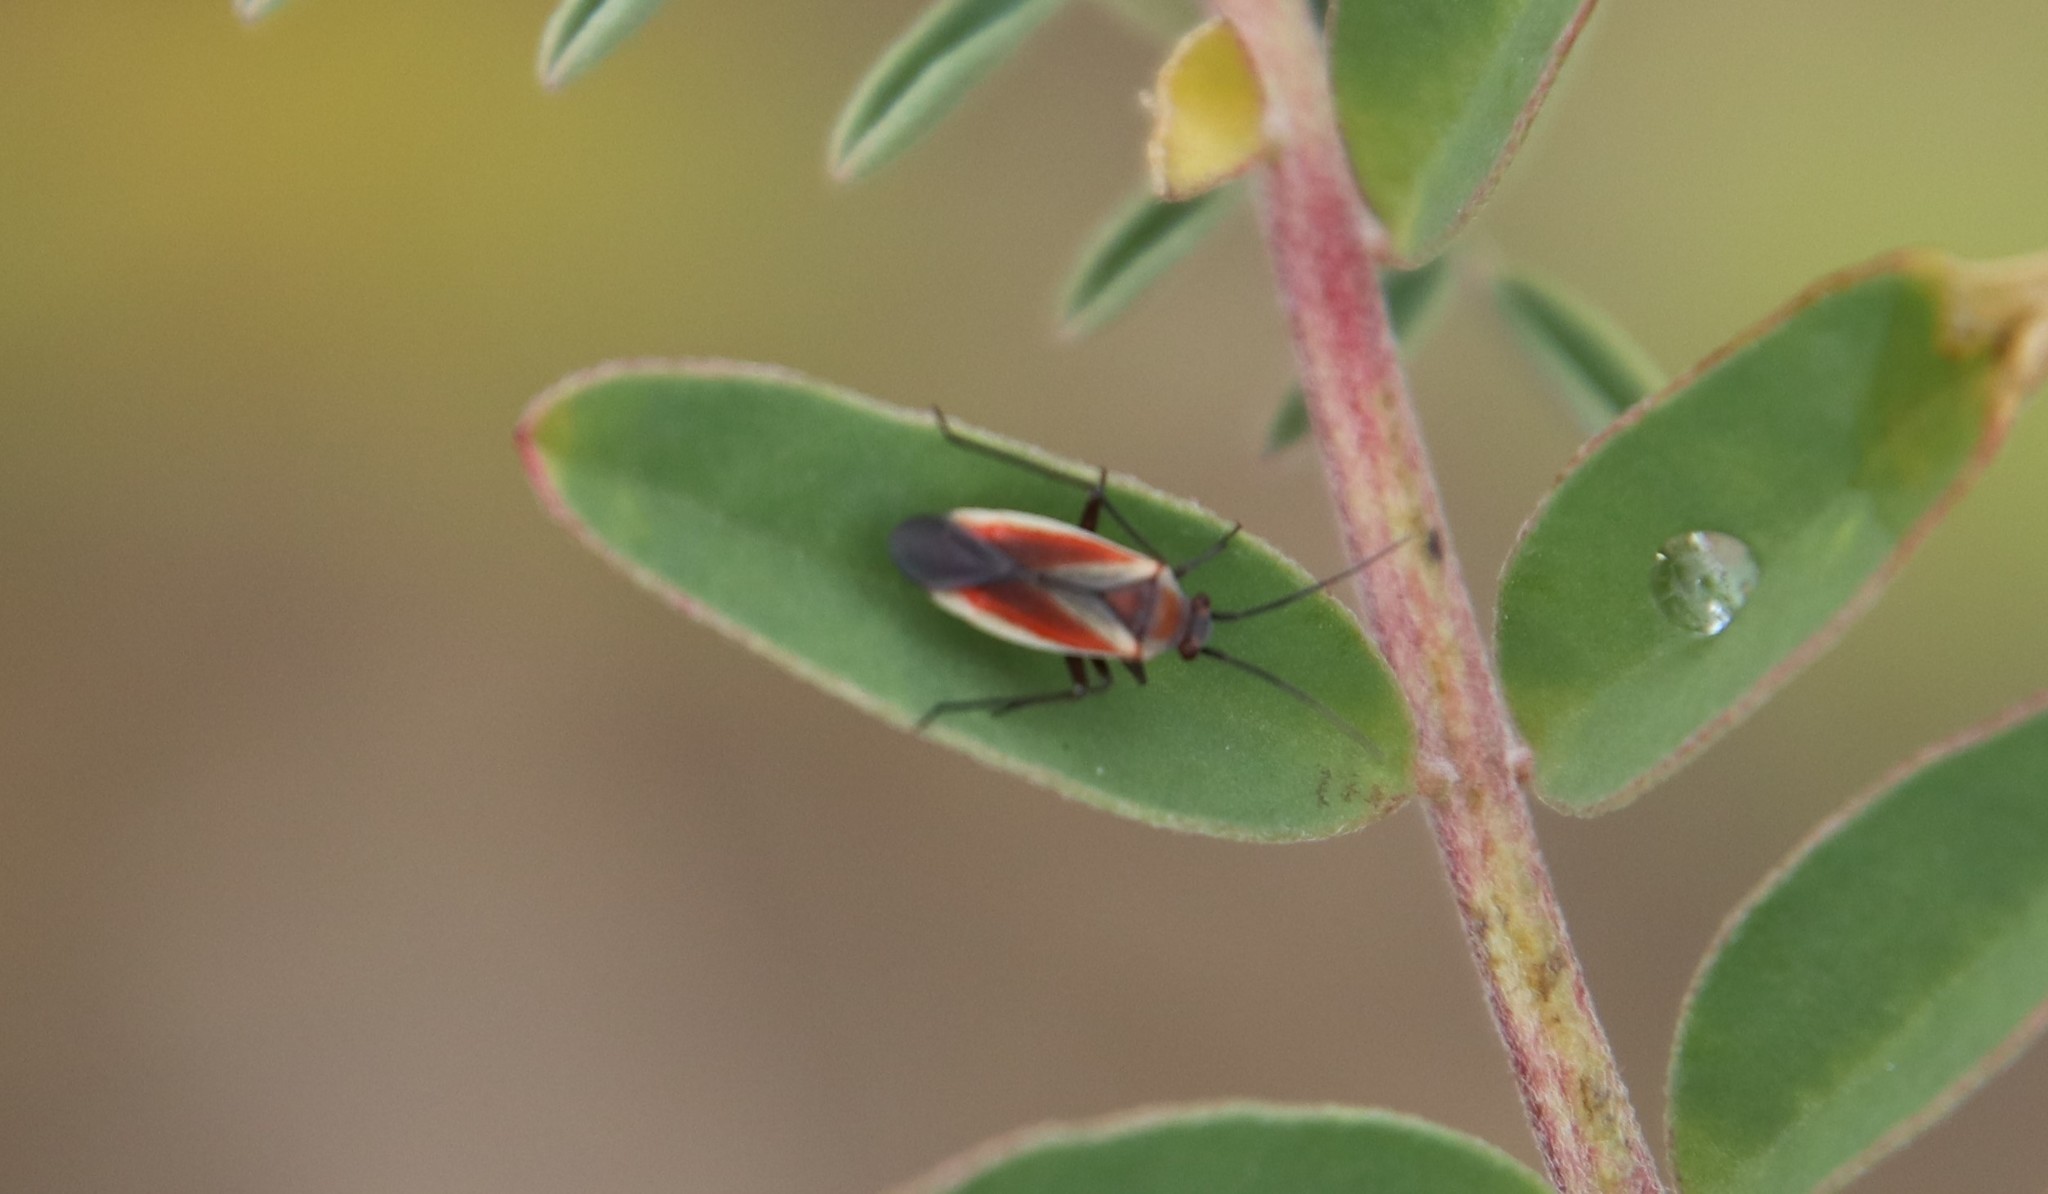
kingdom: Animalia
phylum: Arthropoda
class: Insecta
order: Hemiptera
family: Miridae
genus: Lopidea
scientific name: Lopidea marginata
